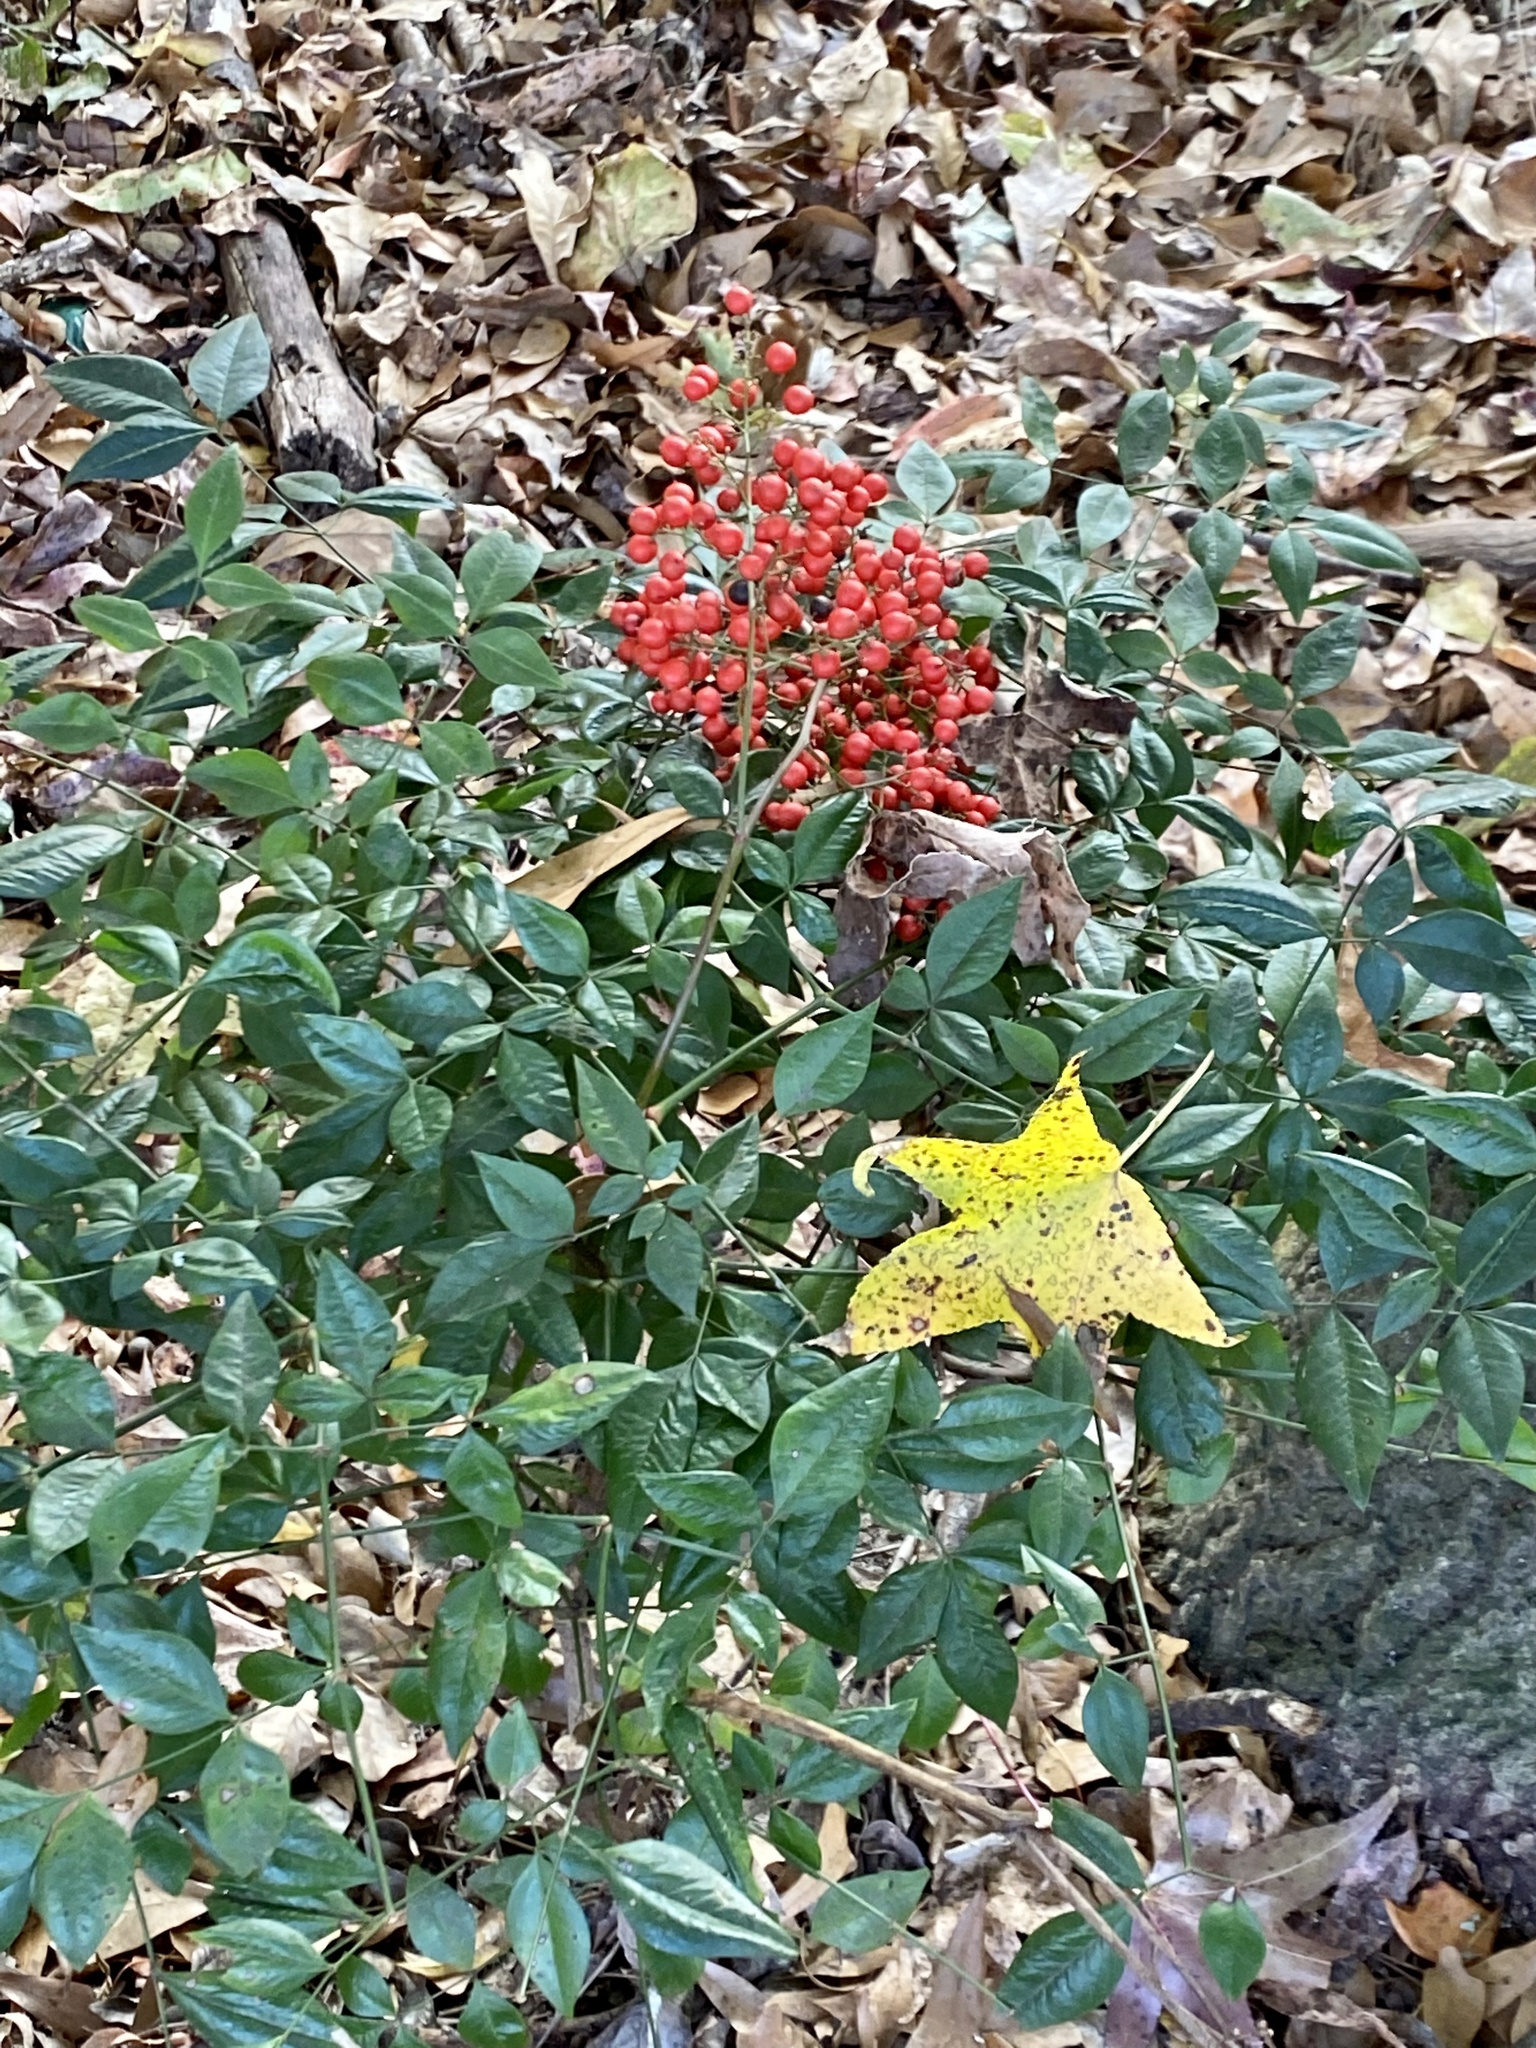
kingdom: Plantae
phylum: Tracheophyta
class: Magnoliopsida
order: Ranunculales
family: Berberidaceae
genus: Nandina
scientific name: Nandina domestica
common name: Sacred bamboo
